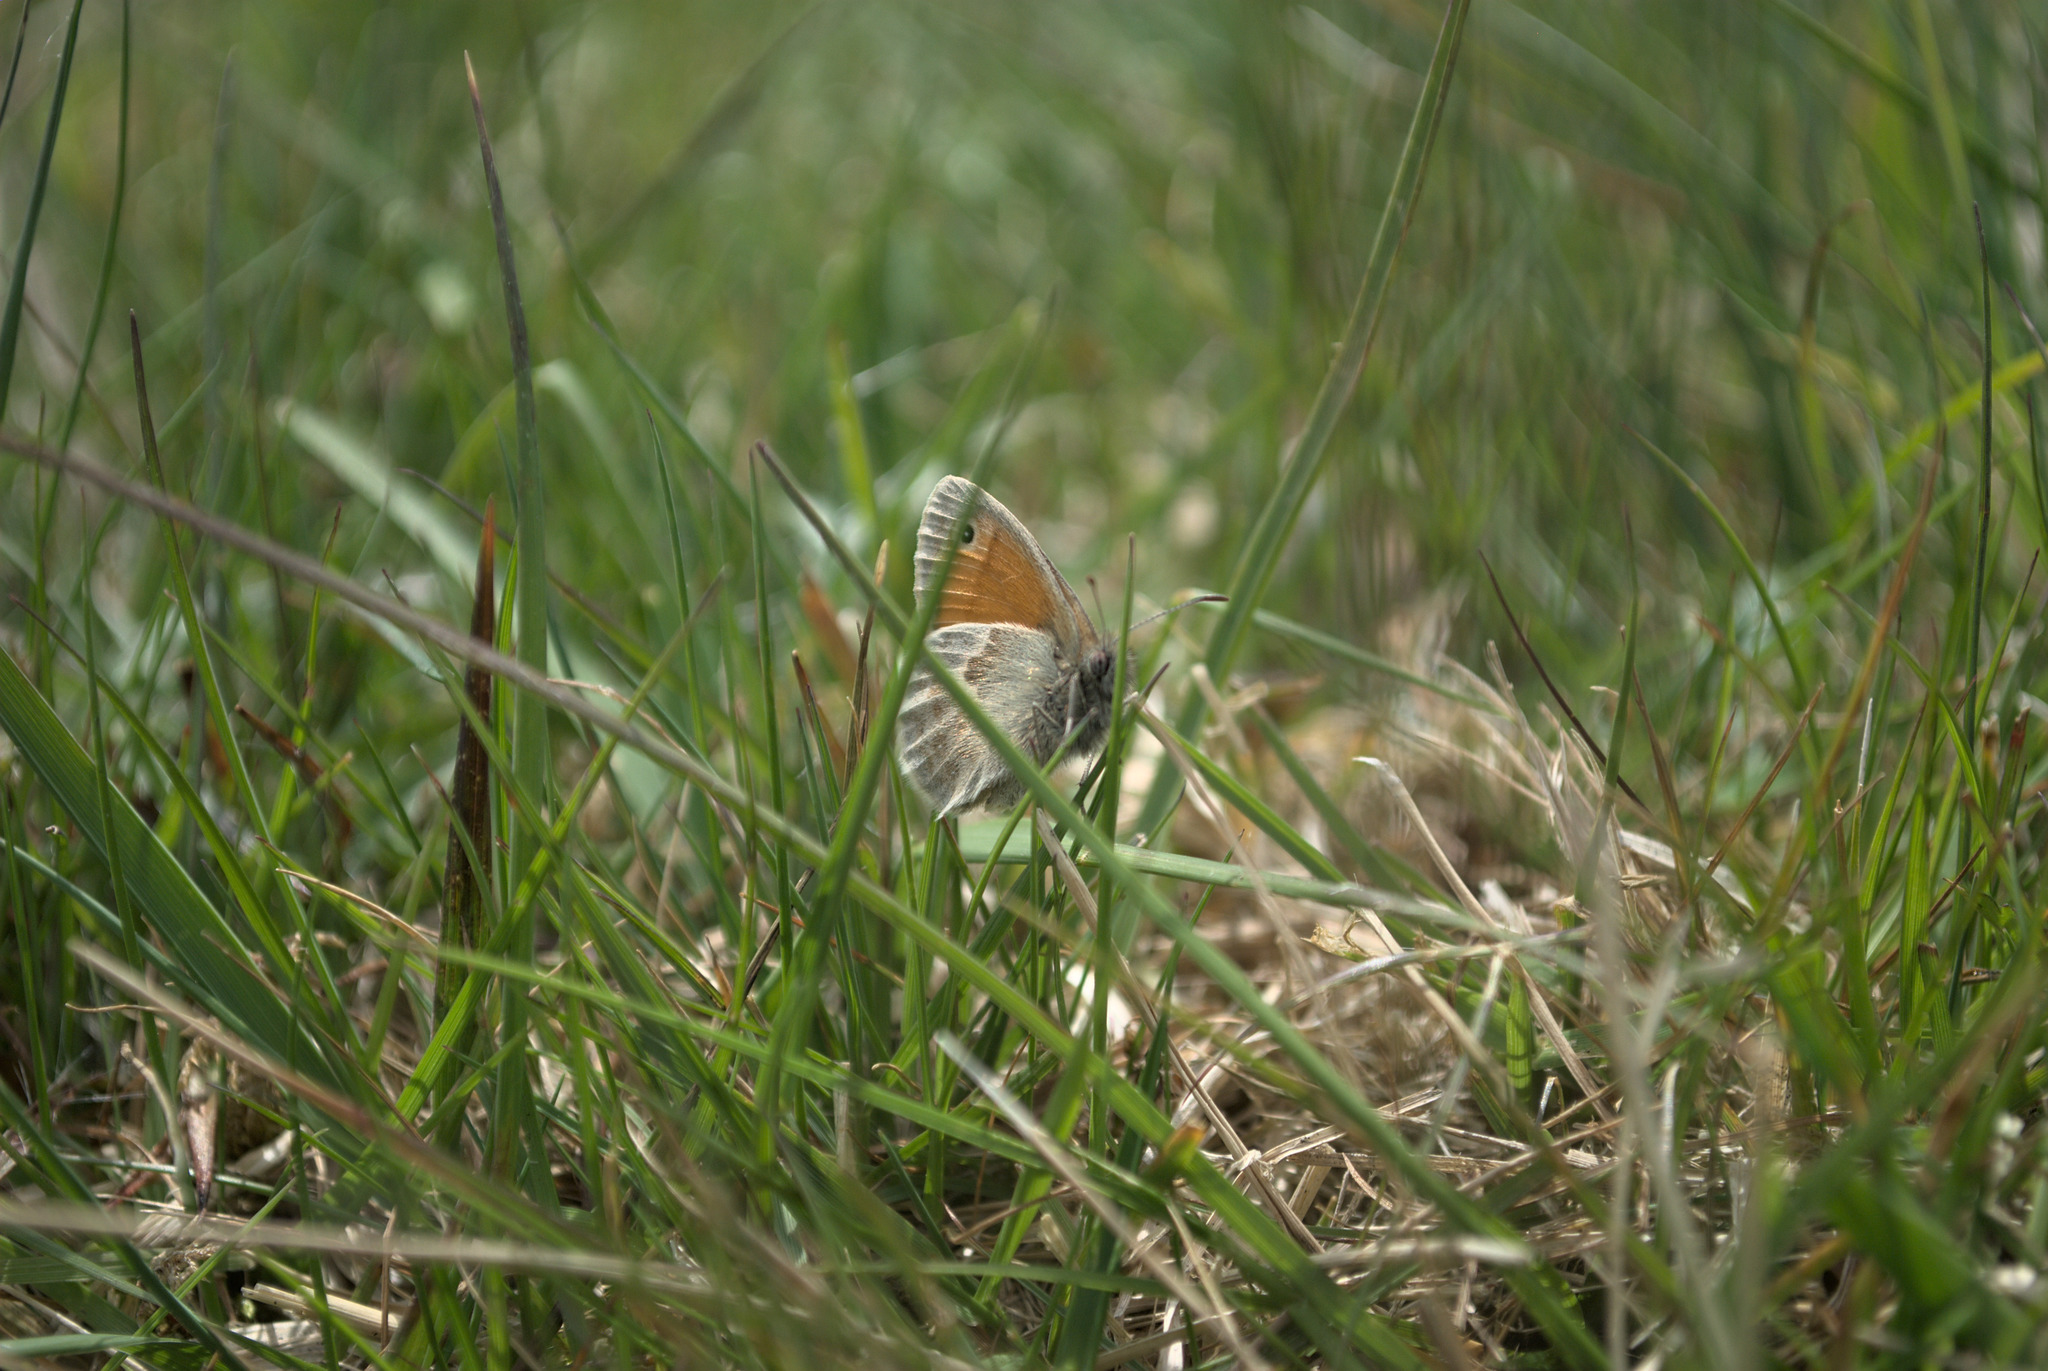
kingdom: Animalia
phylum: Arthropoda
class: Insecta
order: Lepidoptera
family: Nymphalidae
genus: Coenonympha
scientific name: Coenonympha pamphilus
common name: Small heath
